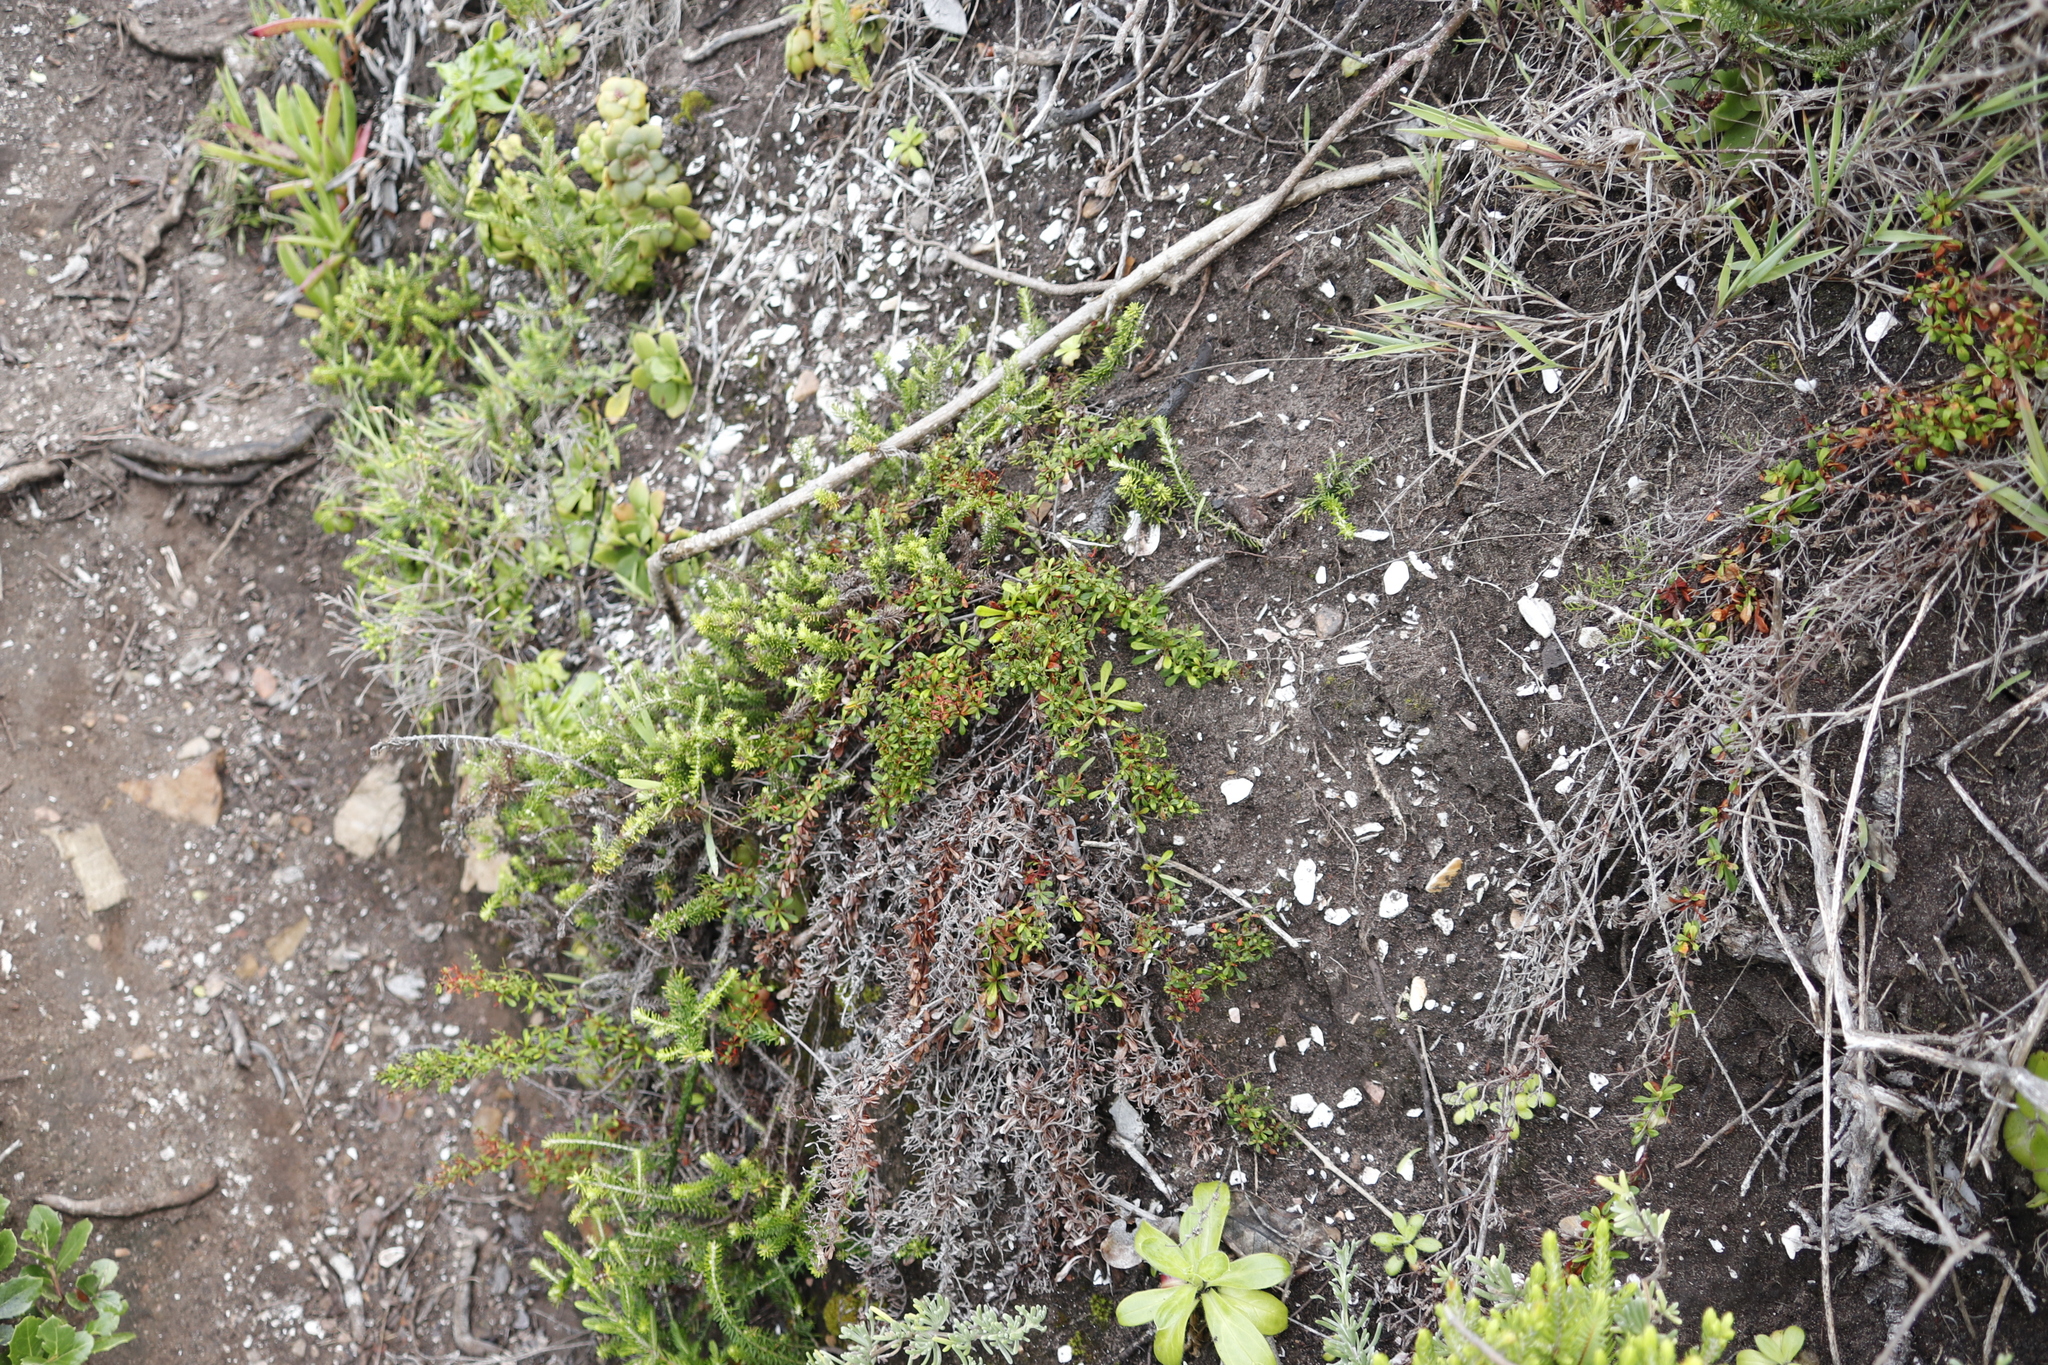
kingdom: Plantae
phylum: Tracheophyta
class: Magnoliopsida
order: Caryophyllales
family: Plumbaginaceae
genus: Limonium
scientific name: Limonium scabrum
